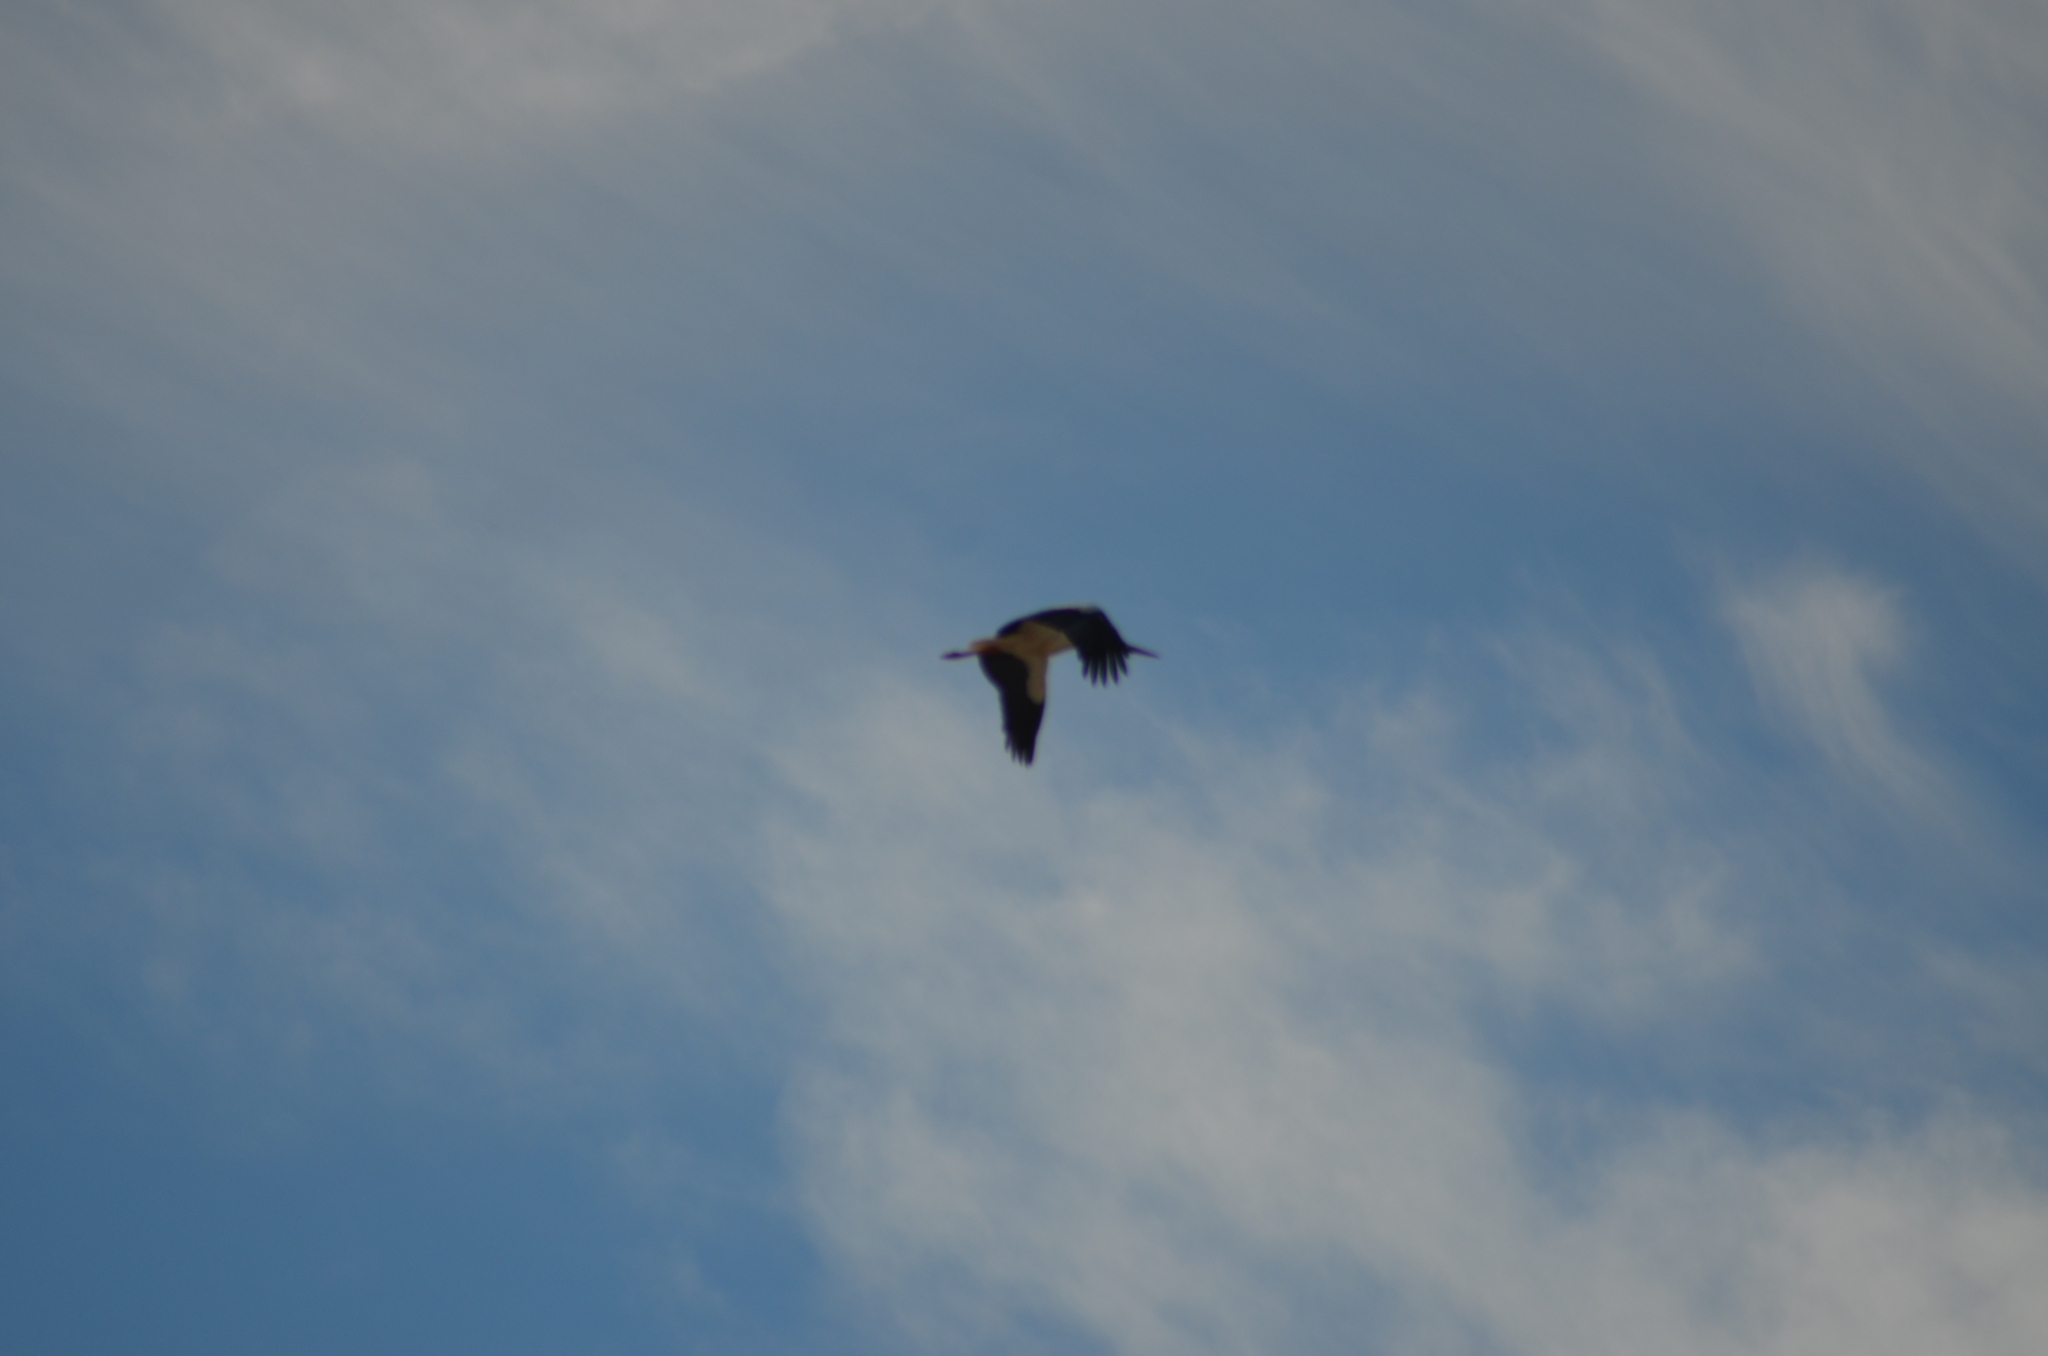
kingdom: Animalia
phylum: Chordata
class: Aves
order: Ciconiiformes
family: Ciconiidae
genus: Ciconia
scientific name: Ciconia ciconia
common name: White stork
